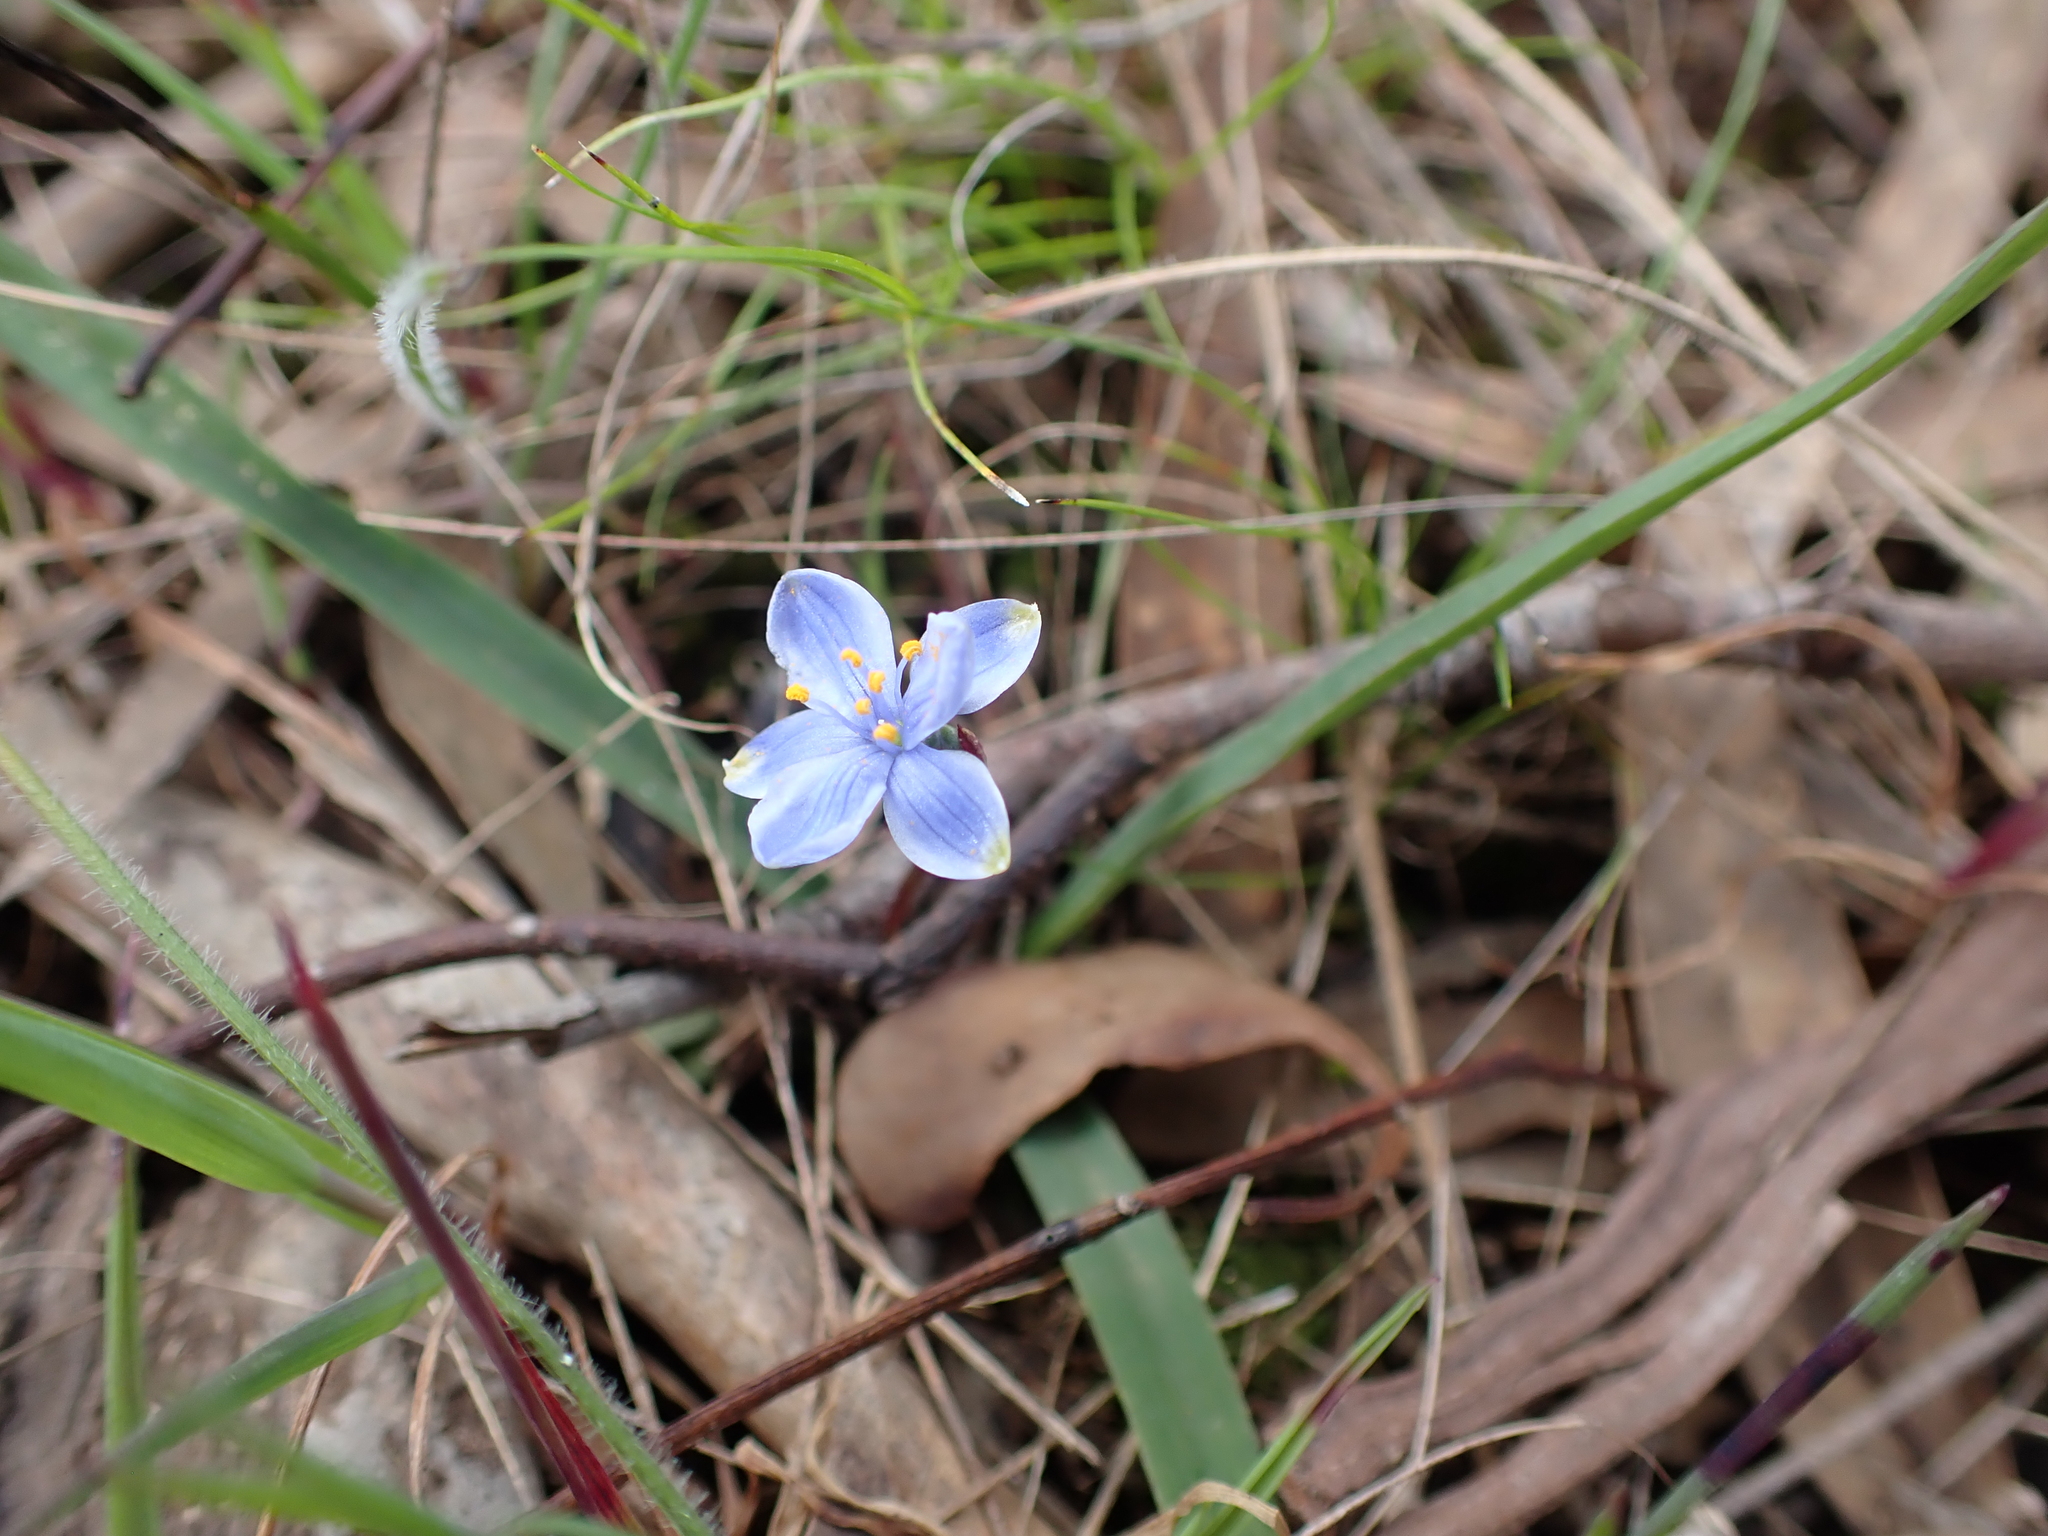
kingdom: Plantae
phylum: Tracheophyta
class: Liliopsida
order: Asparagales
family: Asphodelaceae
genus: Chamaescilla
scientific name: Chamaescilla corymbosa
